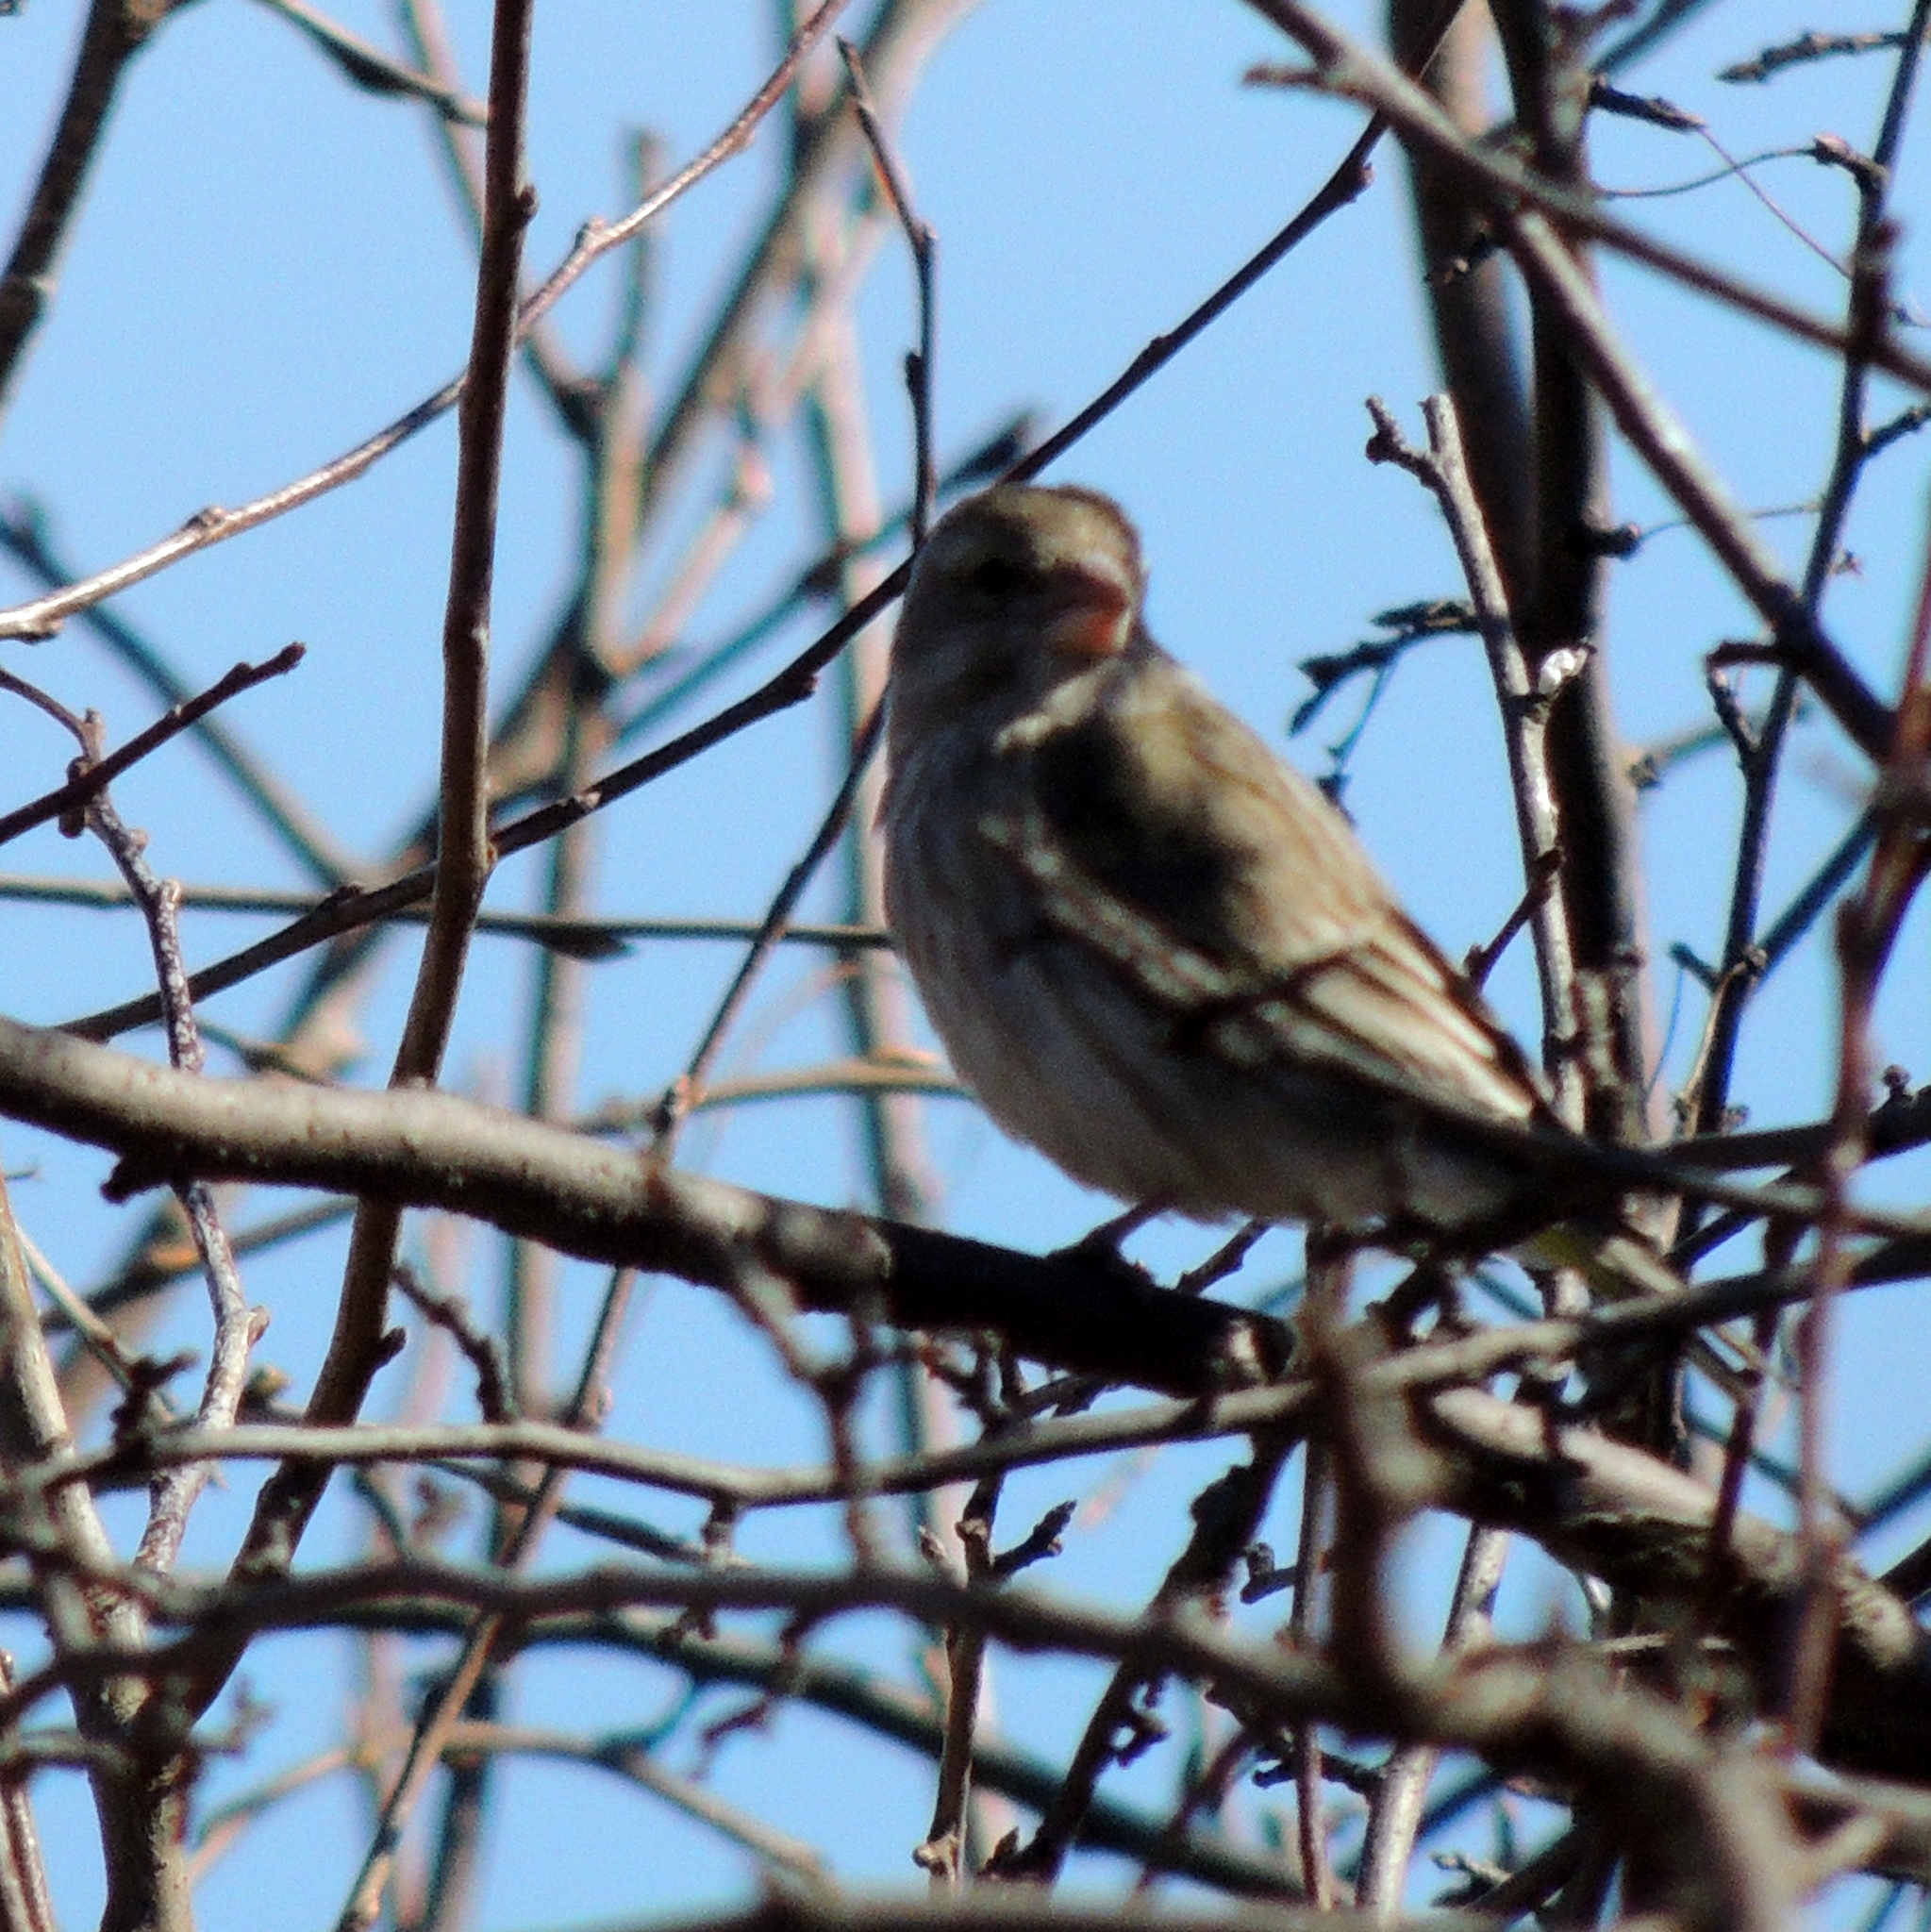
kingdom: Plantae
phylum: Tracheophyta
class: Liliopsida
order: Poales
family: Poaceae
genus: Chloris
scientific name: Chloris chloris
